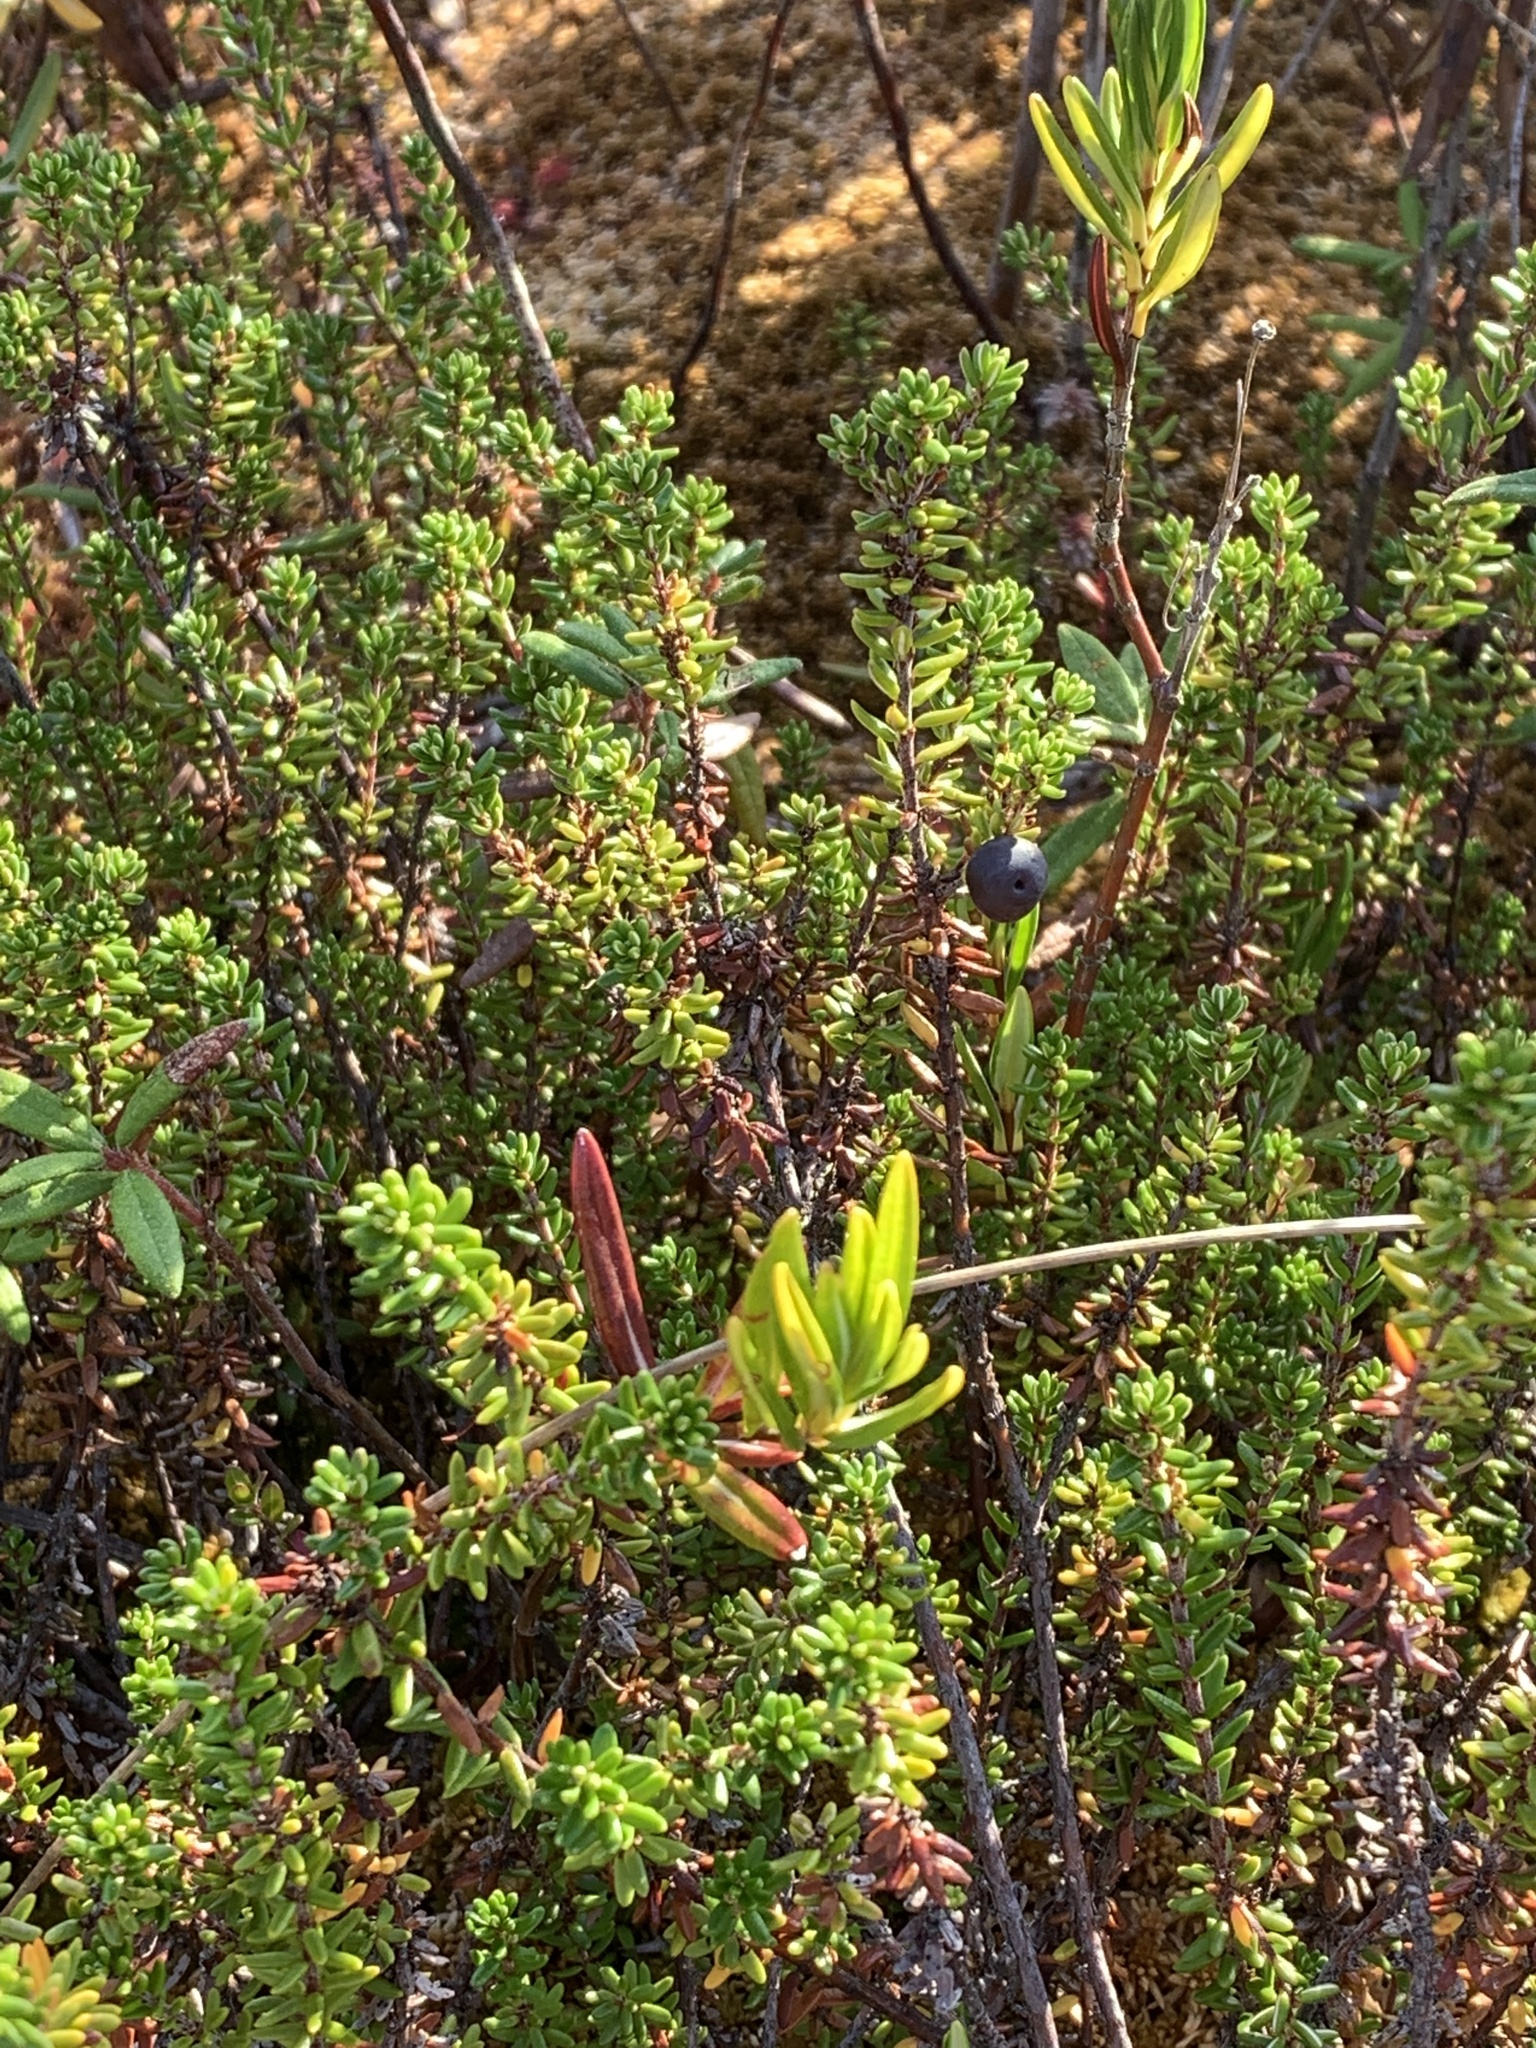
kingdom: Plantae
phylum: Tracheophyta
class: Magnoliopsida
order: Ericales
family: Ericaceae
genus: Empetrum
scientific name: Empetrum nigrum
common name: Black crowberry
